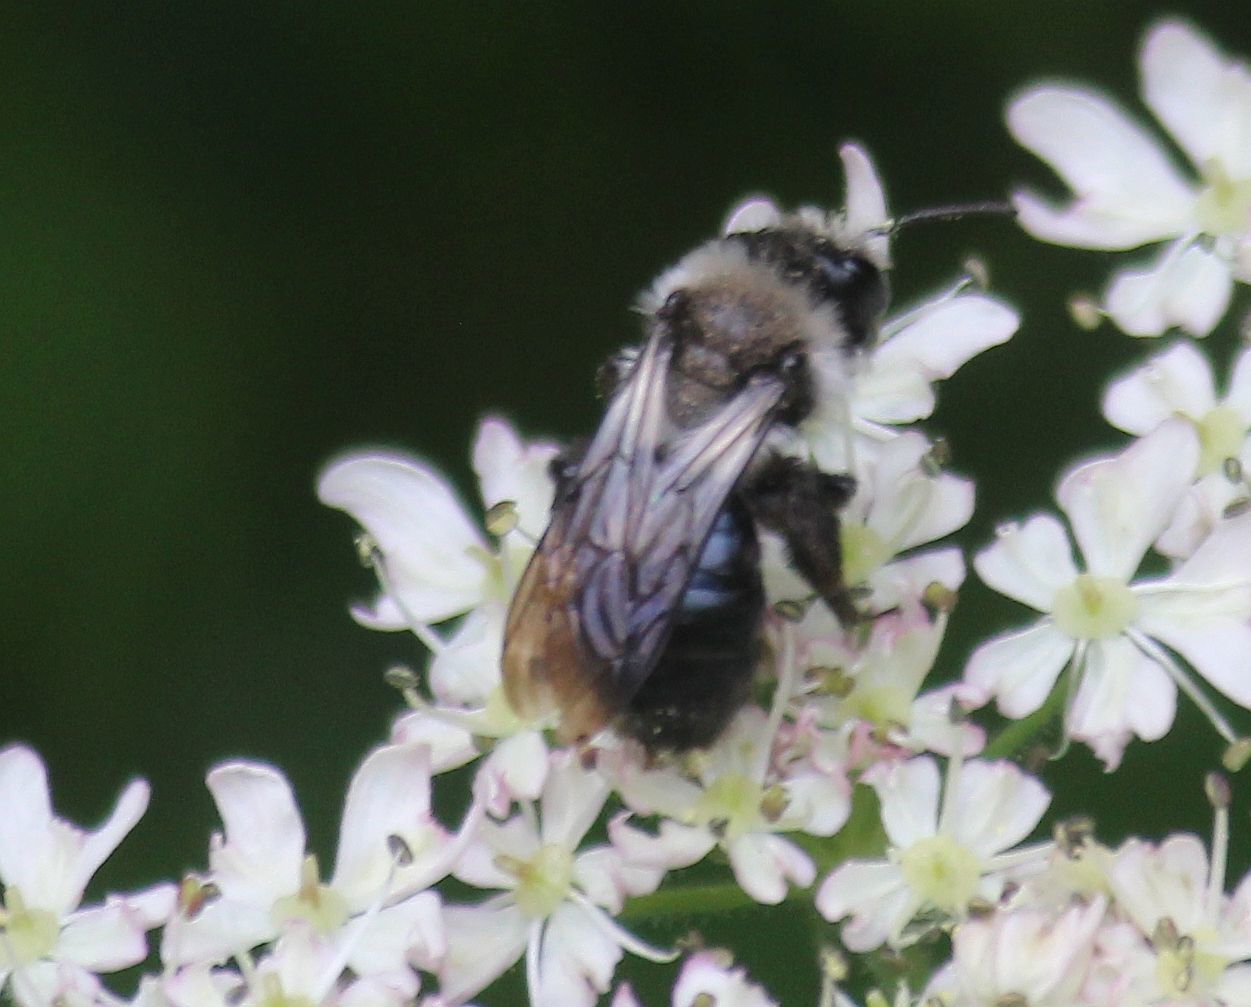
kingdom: Animalia
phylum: Arthropoda
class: Insecta
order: Hymenoptera
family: Andrenidae
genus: Andrena
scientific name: Andrena cineraria
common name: Ashy mining bee
